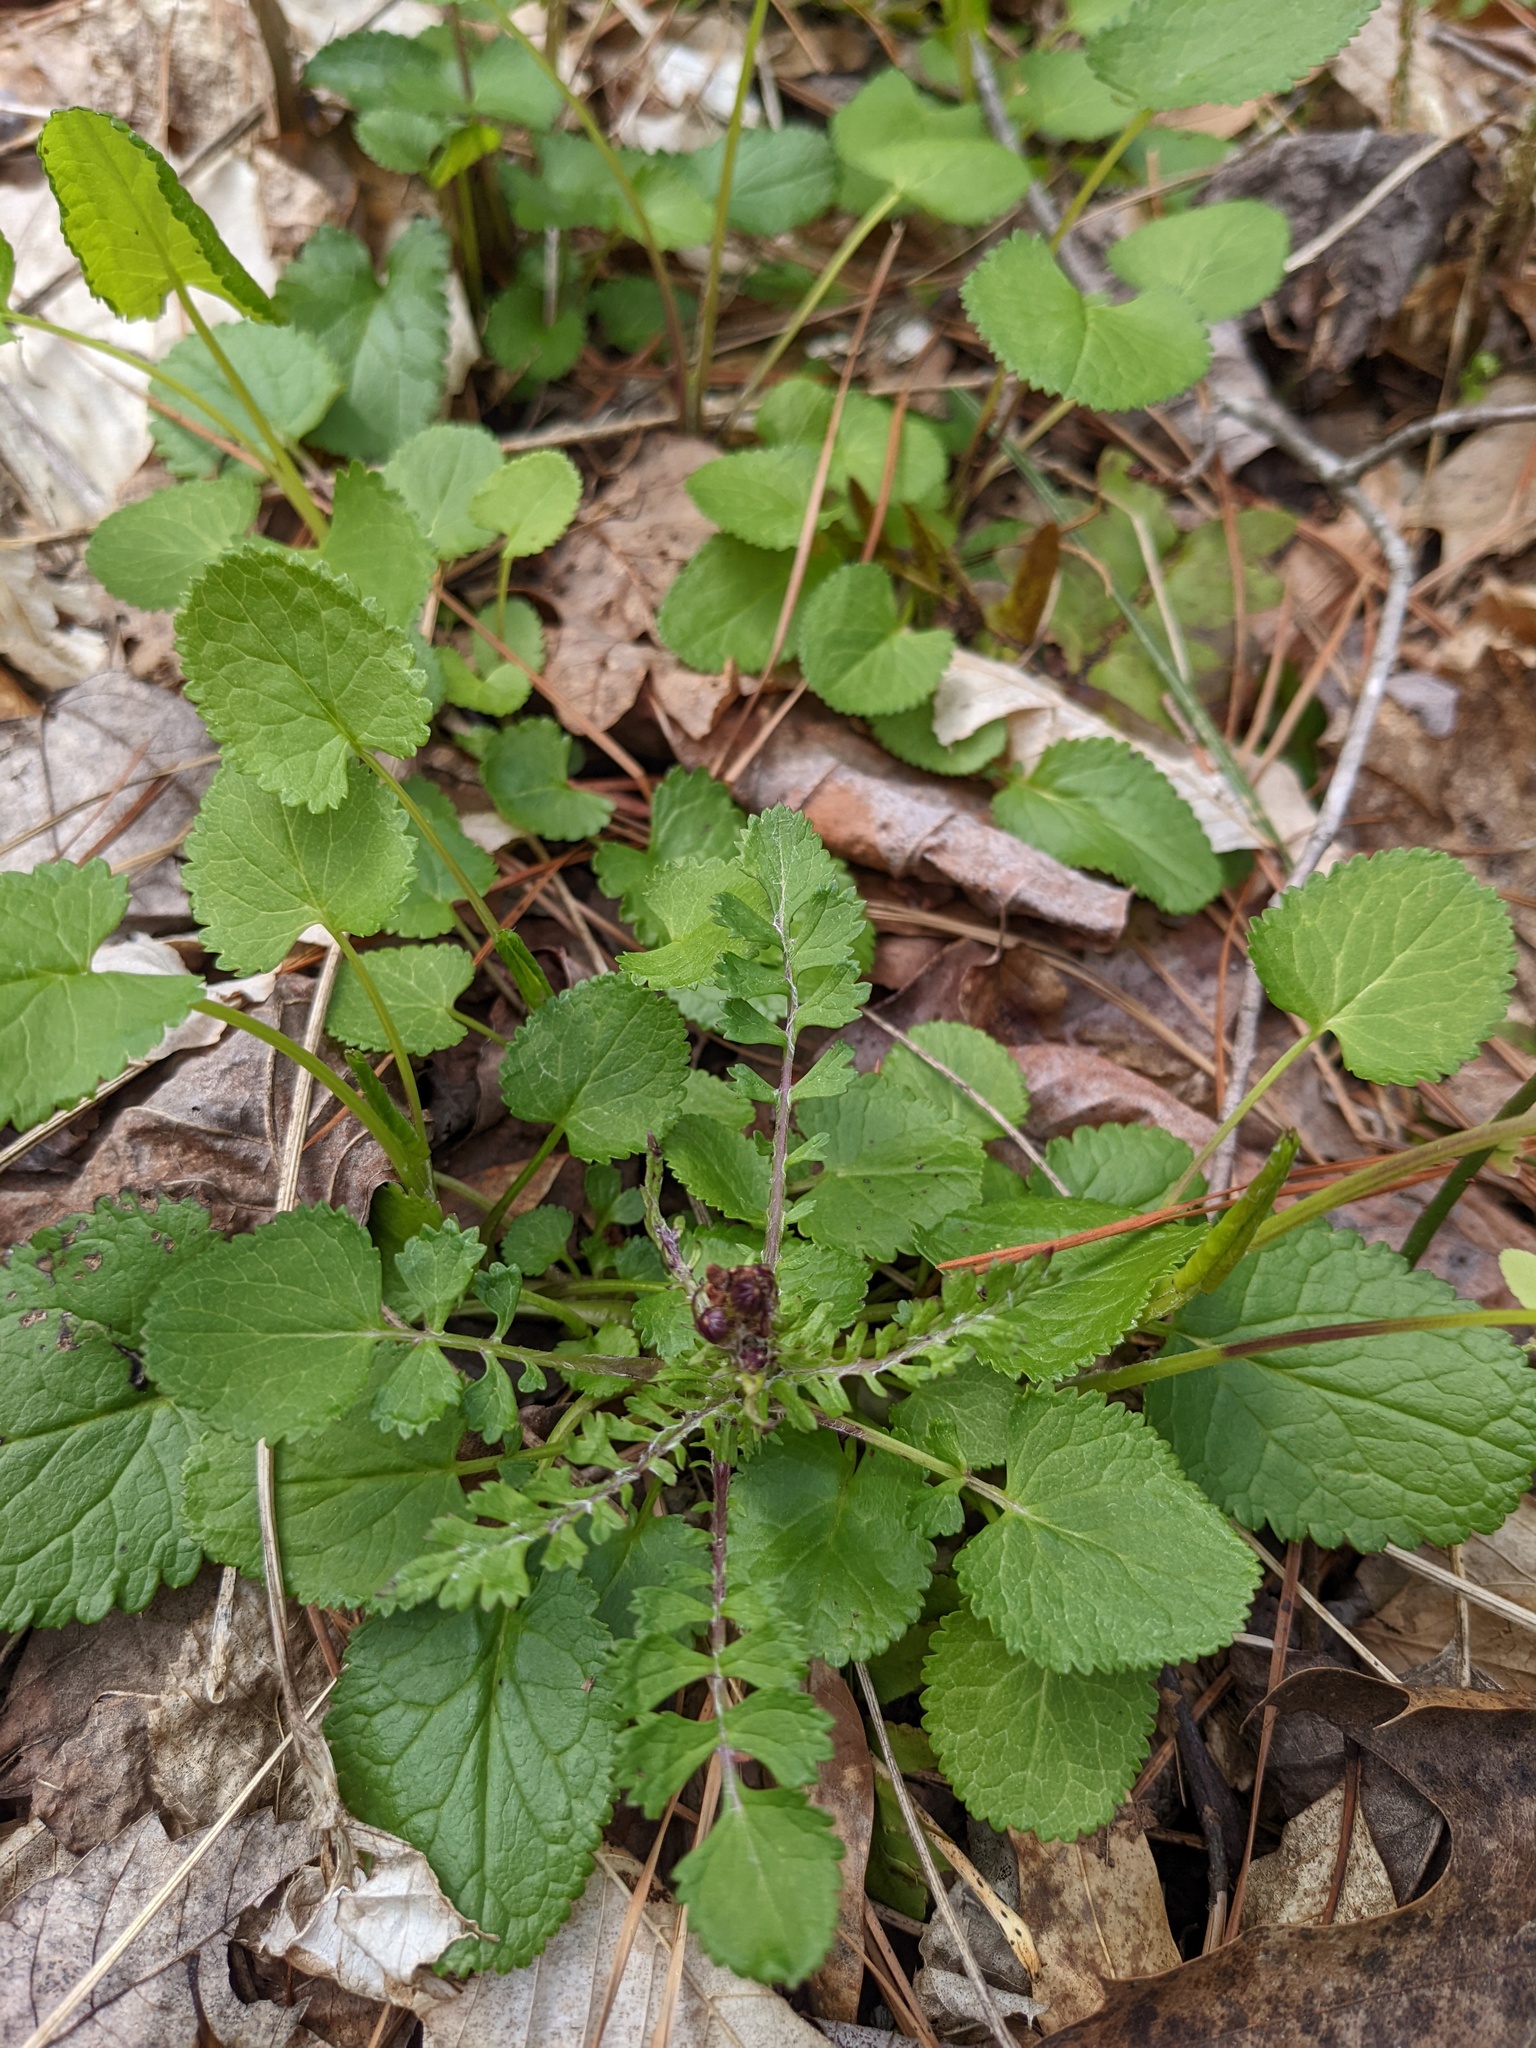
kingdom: Plantae
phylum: Tracheophyta
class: Magnoliopsida
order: Asterales
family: Asteraceae
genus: Packera
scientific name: Packera aurea
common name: Golden groundsel
